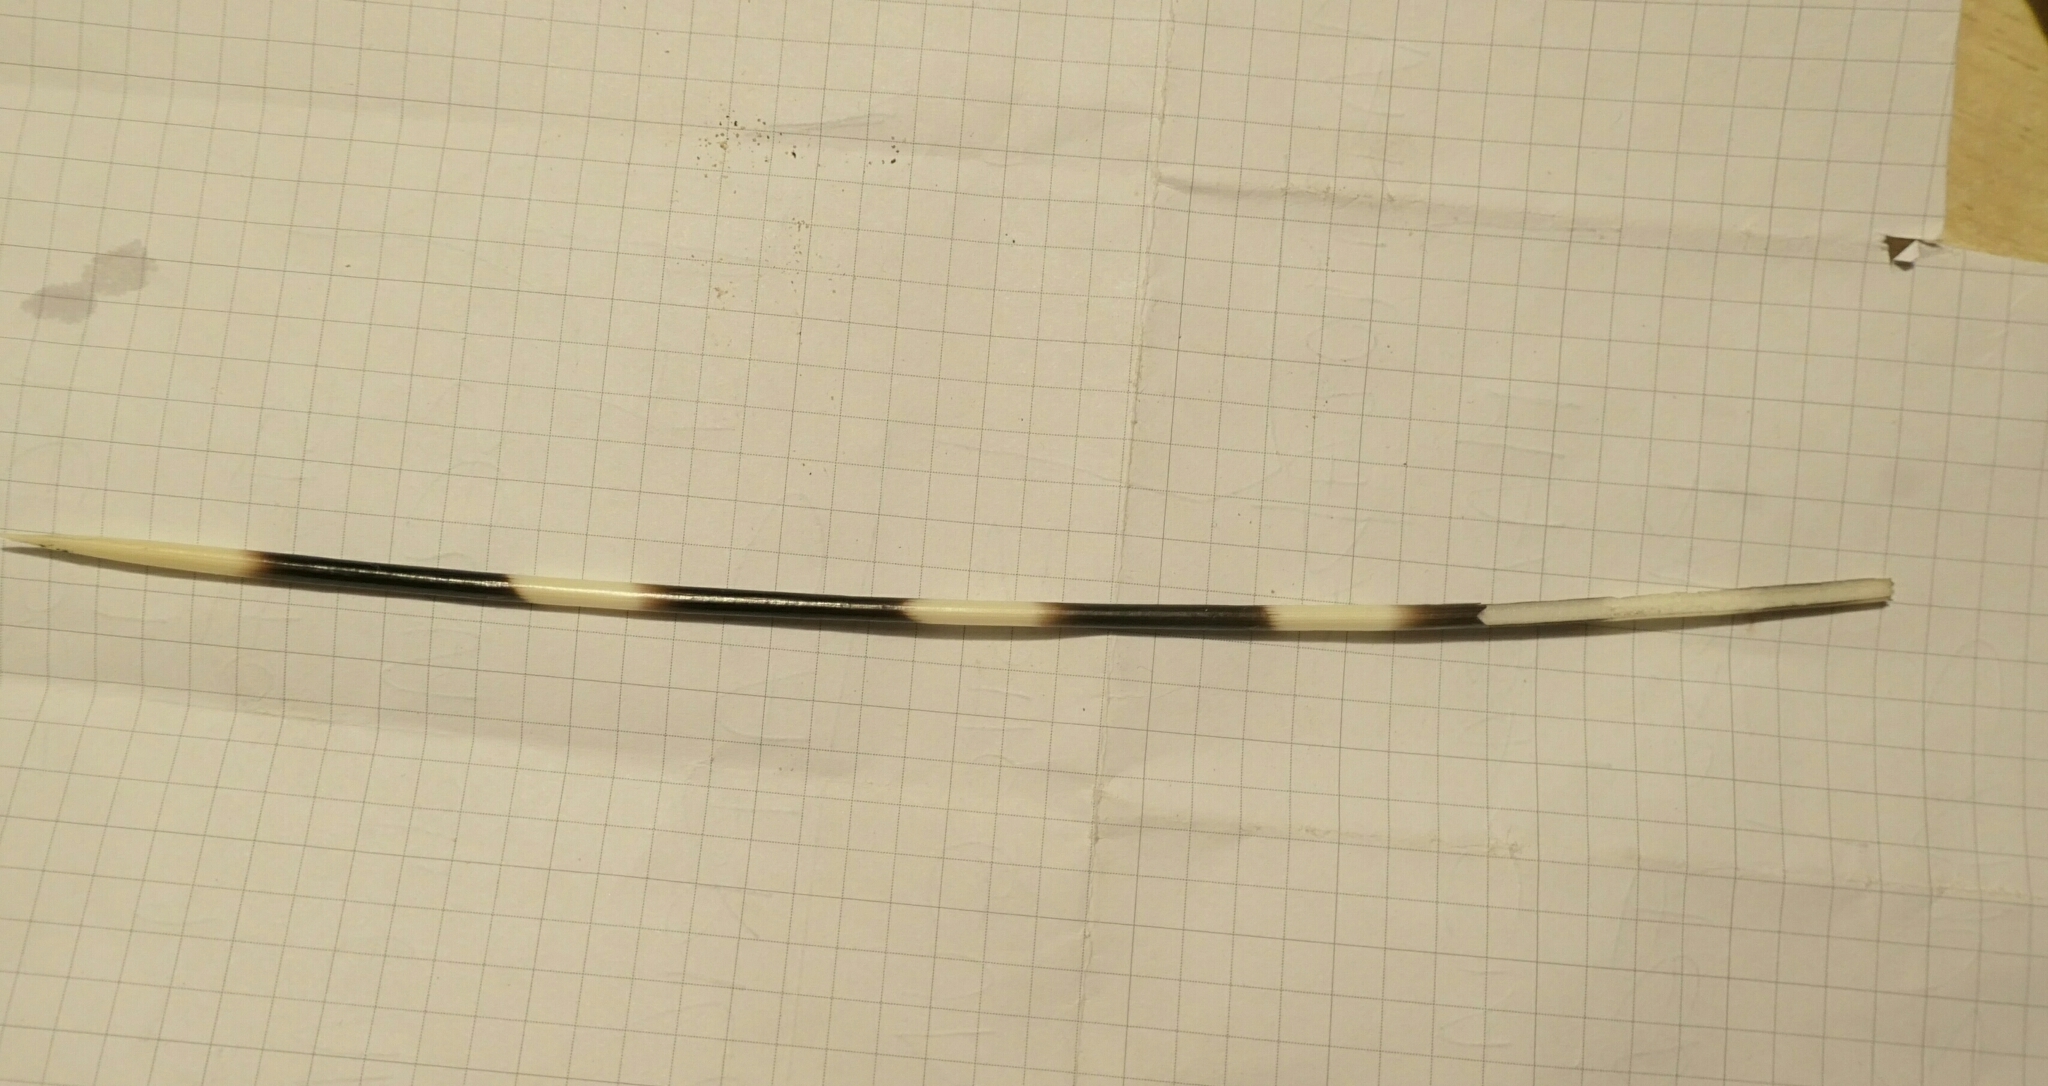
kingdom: Animalia
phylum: Chordata
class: Mammalia
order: Rodentia
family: Hystricidae
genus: Hystrix
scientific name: Hystrix cristata
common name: Crested porcupine
